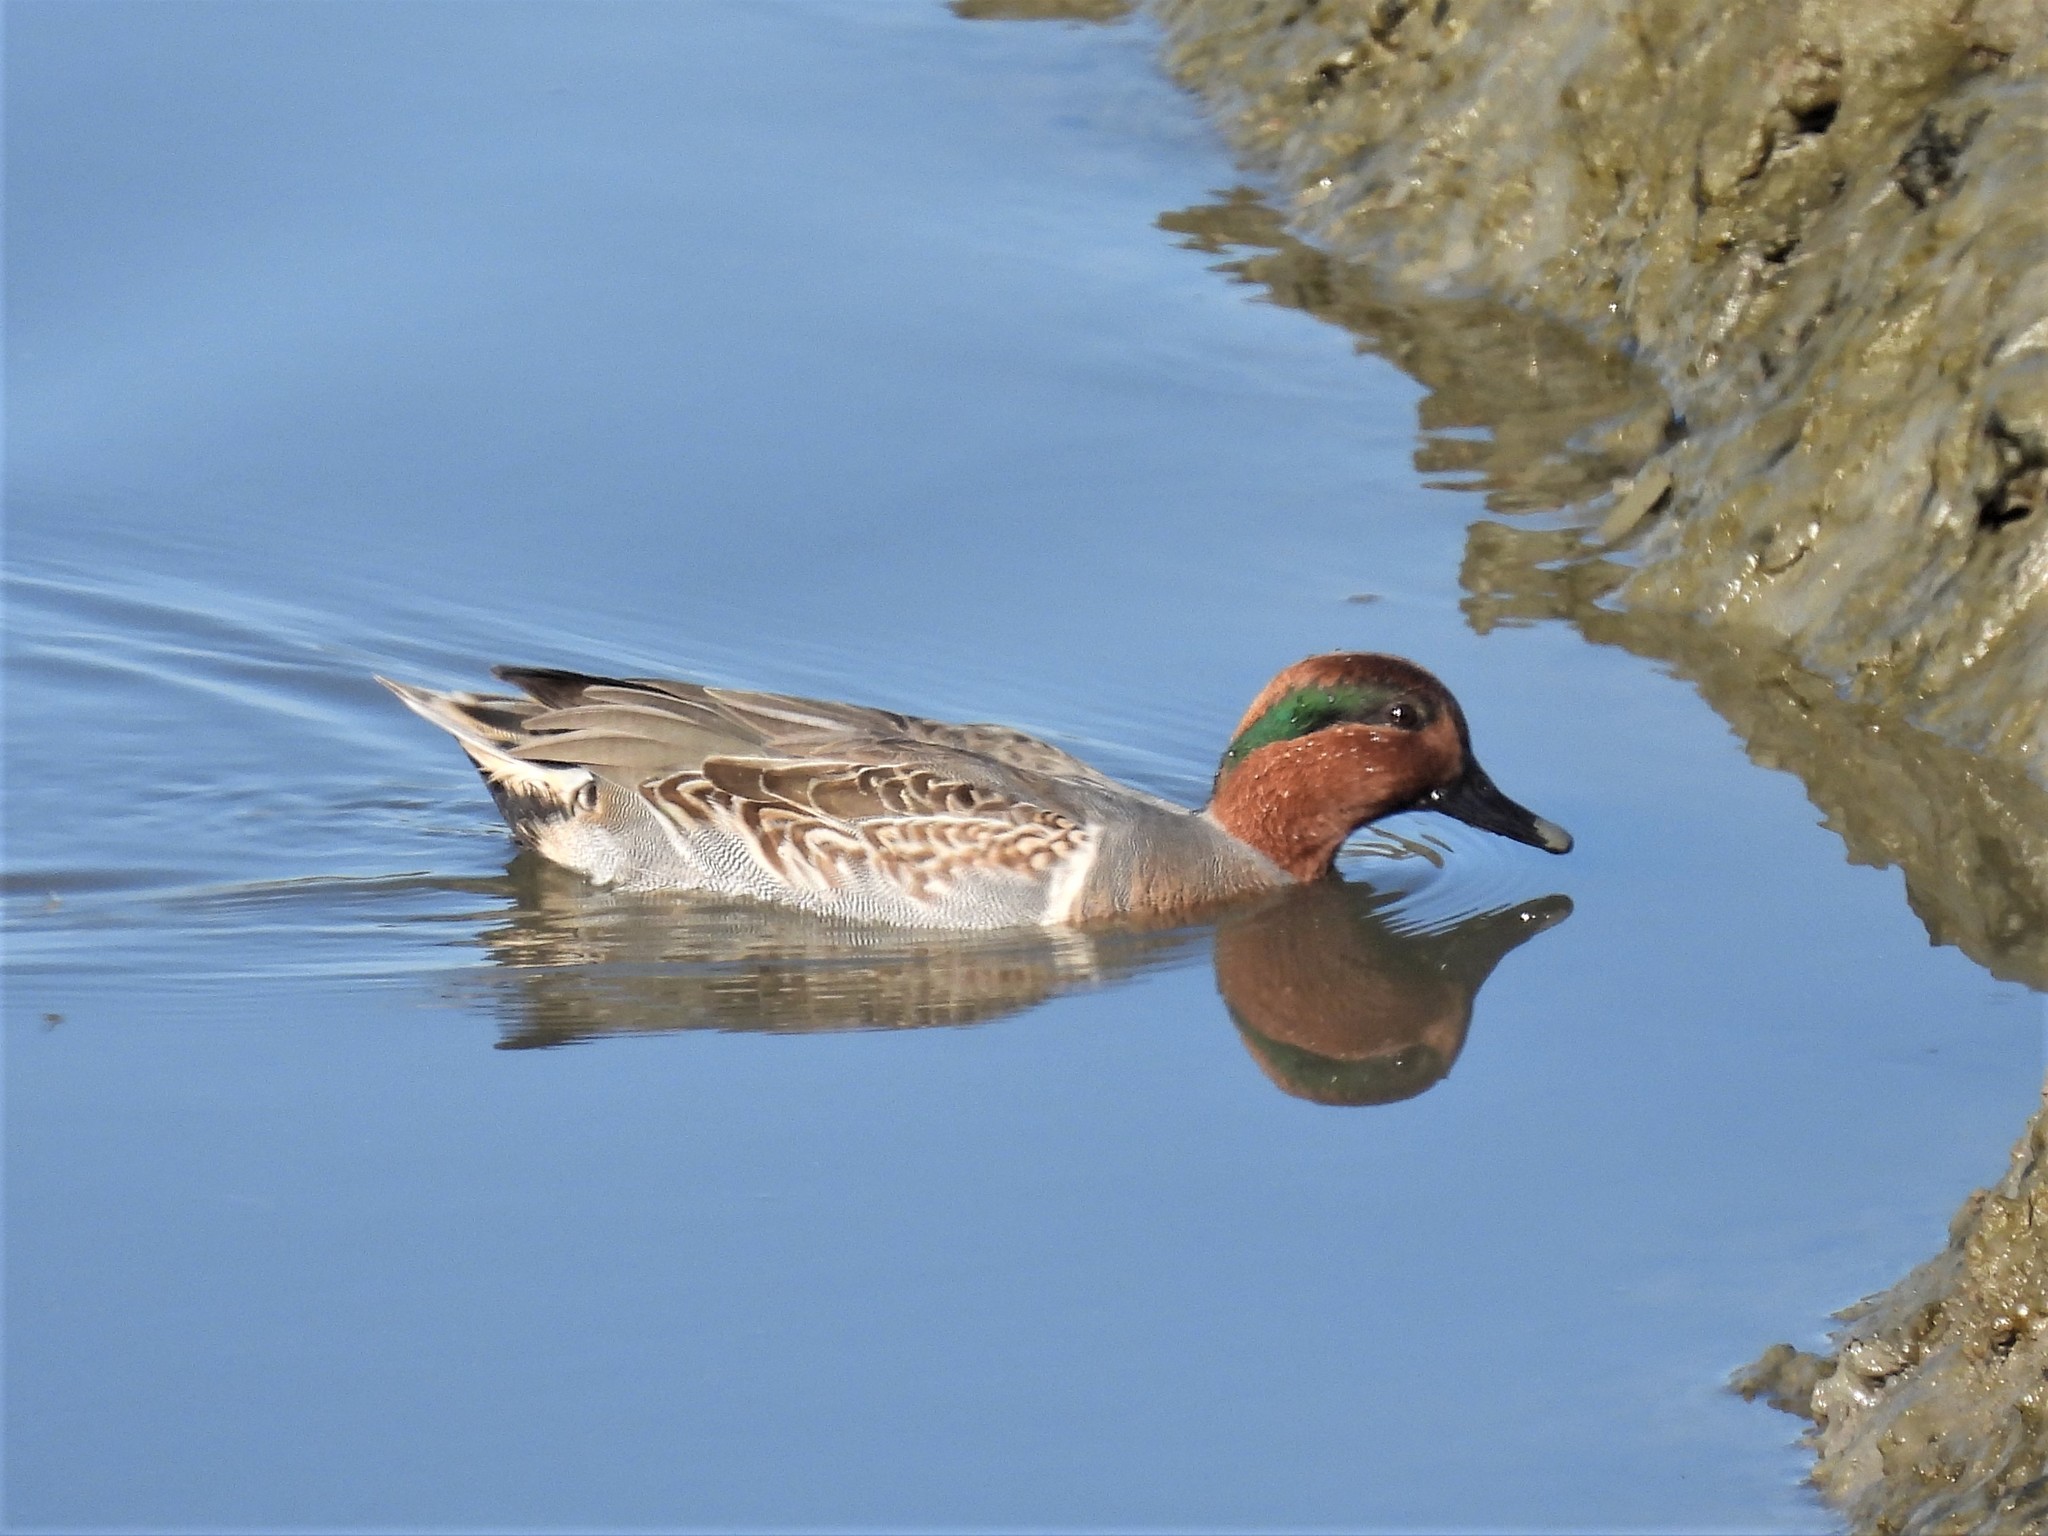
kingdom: Animalia
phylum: Chordata
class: Aves
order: Anseriformes
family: Anatidae
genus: Anas
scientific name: Anas crecca
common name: Eurasian teal
